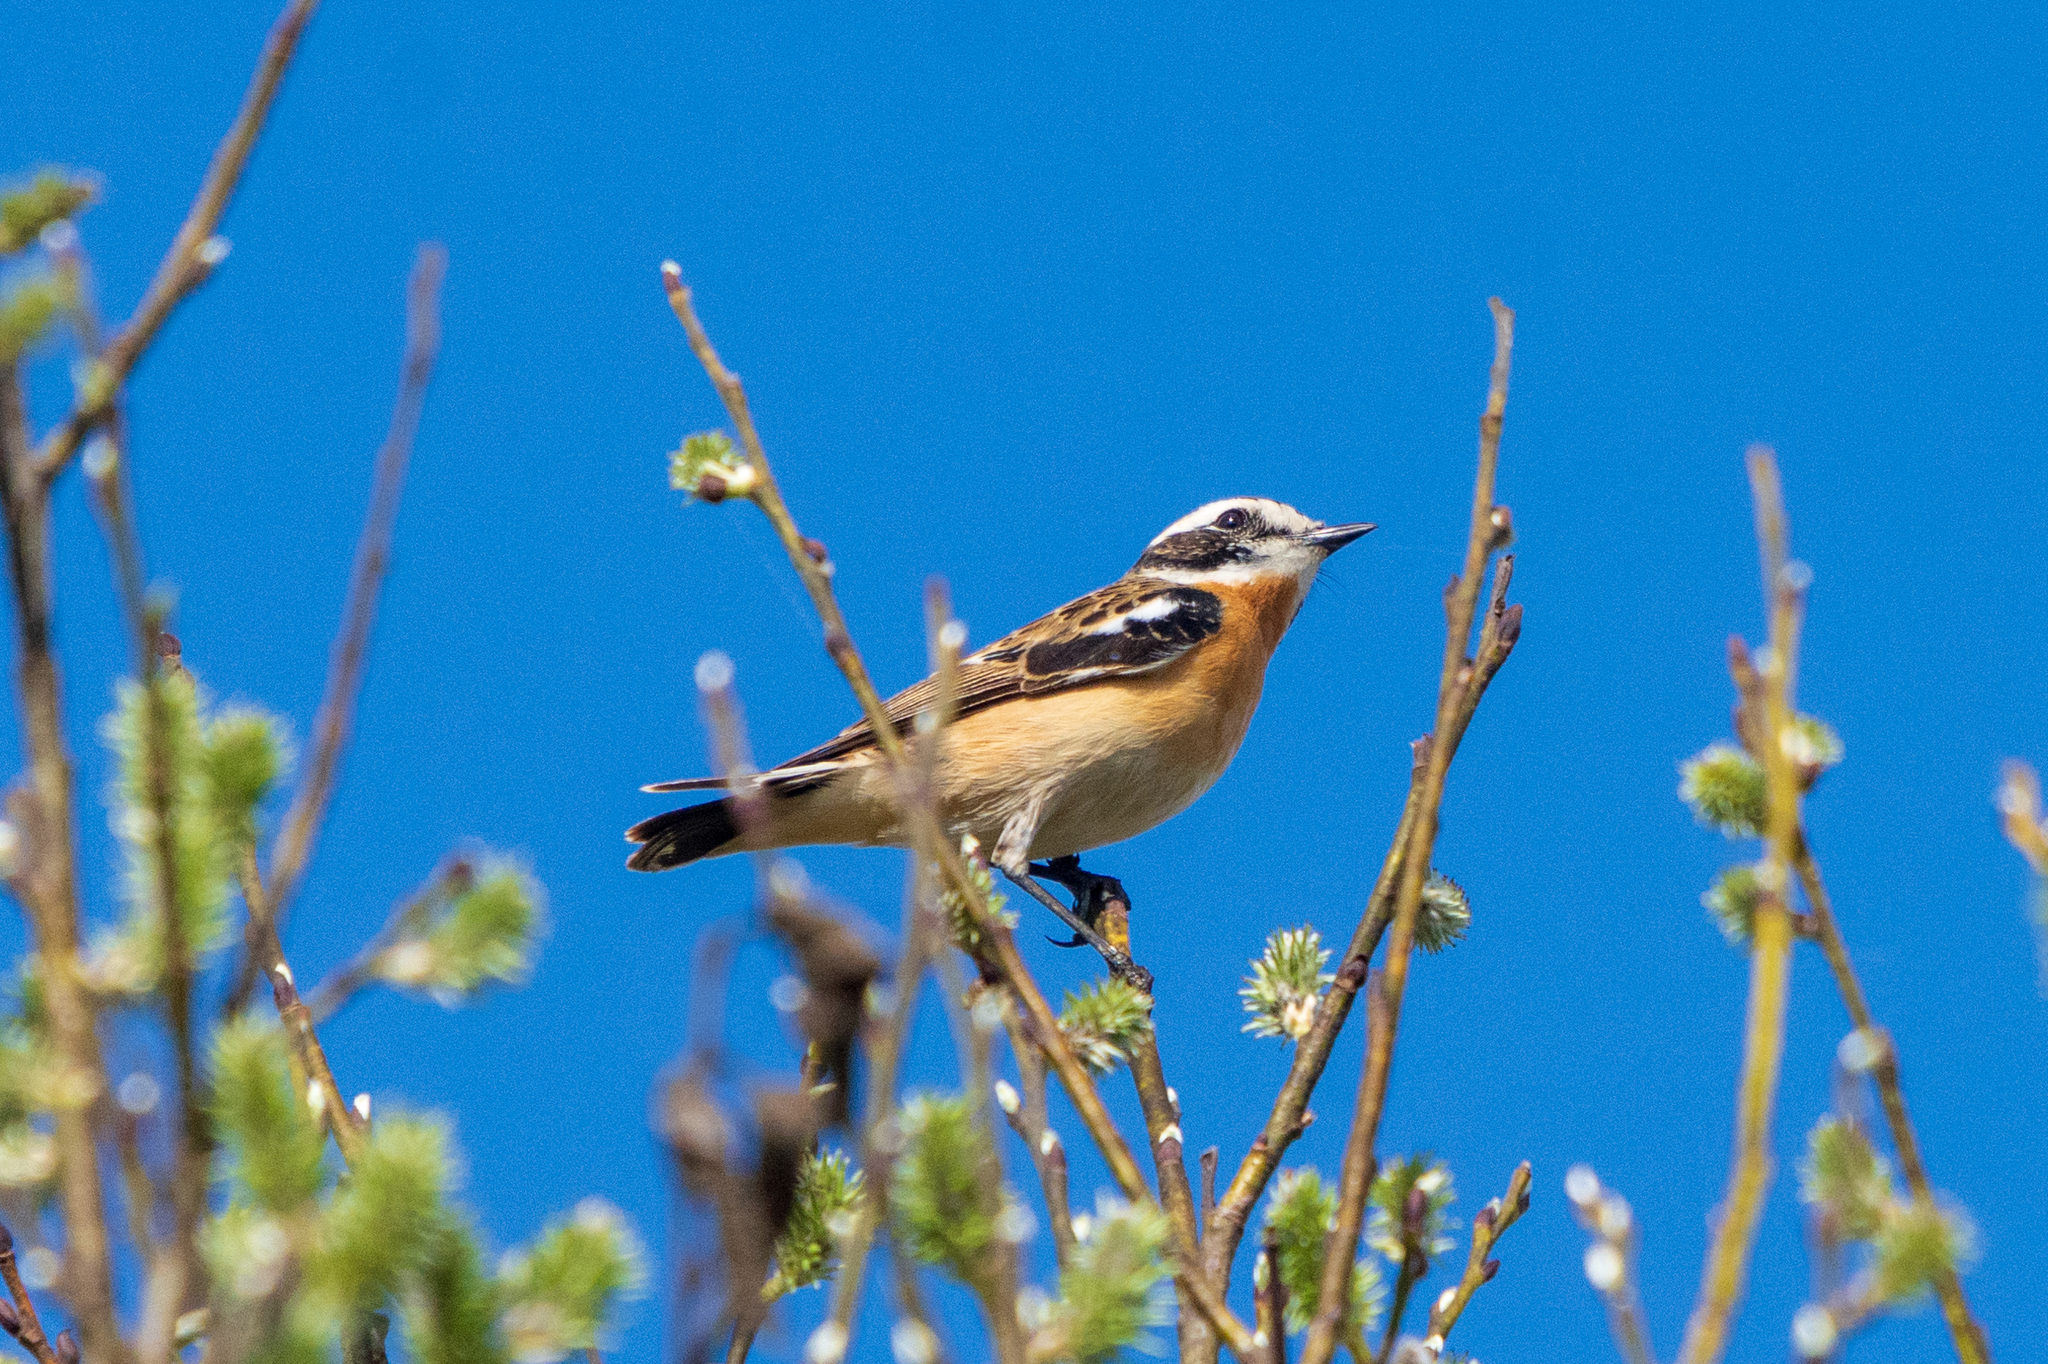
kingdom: Animalia
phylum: Chordata
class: Aves
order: Passeriformes
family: Muscicapidae
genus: Saxicola
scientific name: Saxicola rubetra
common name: Whinchat
